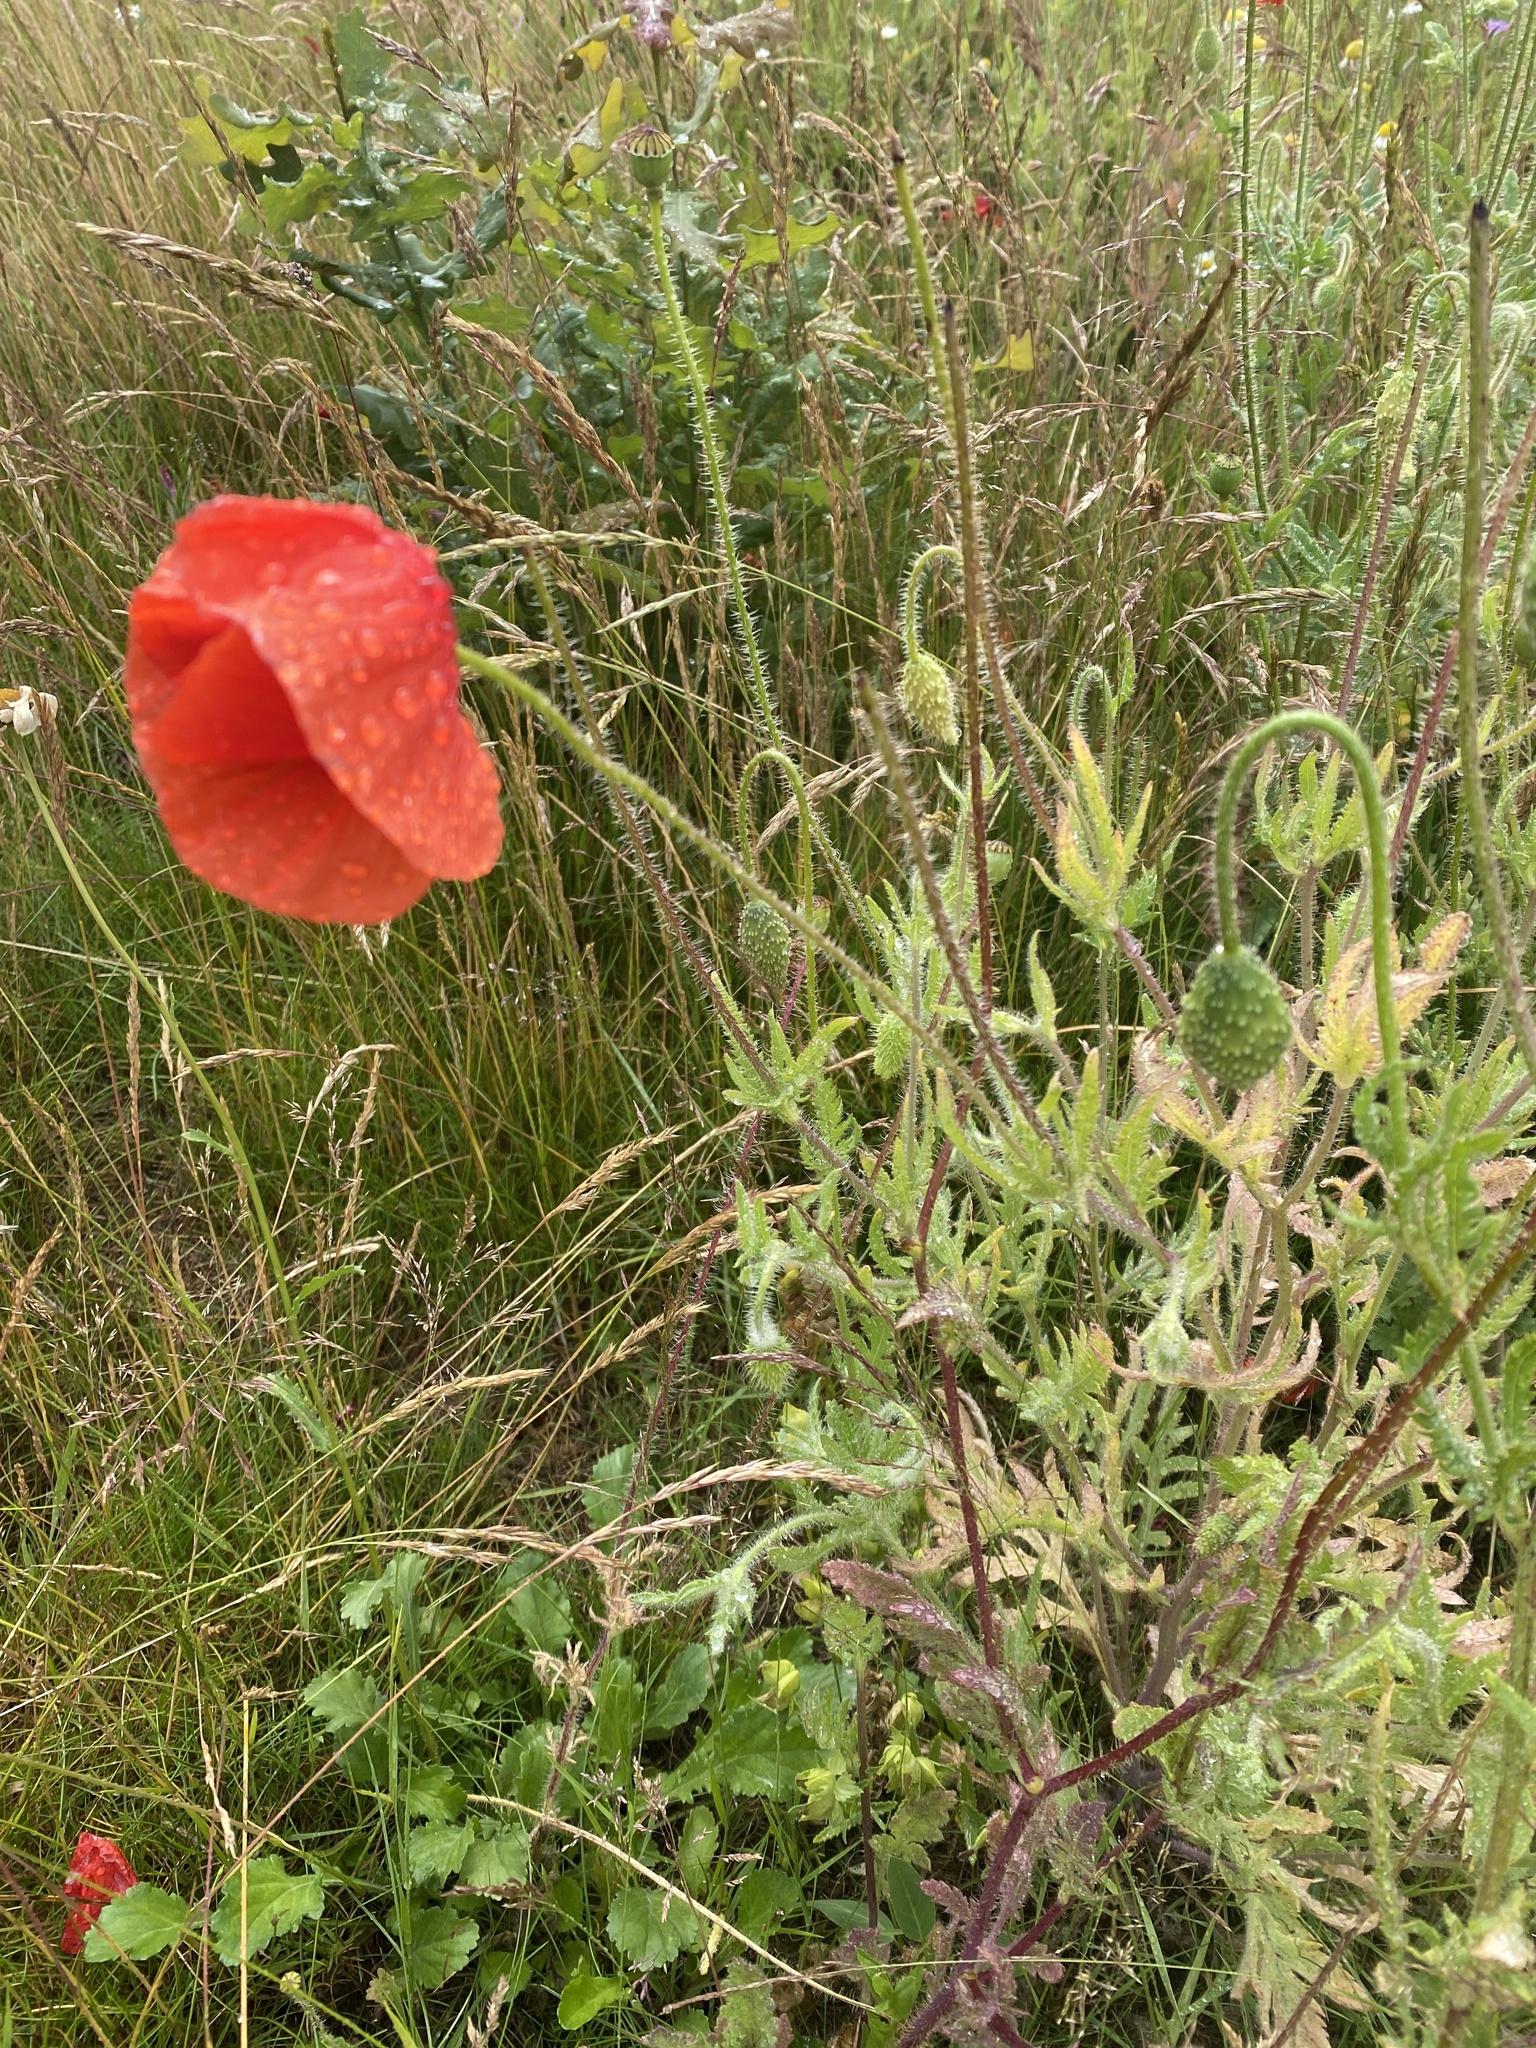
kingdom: Plantae
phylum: Tracheophyta
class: Magnoliopsida
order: Ranunculales
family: Papaveraceae
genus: Papaver
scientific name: Papaver rhoeas
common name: Corn poppy
